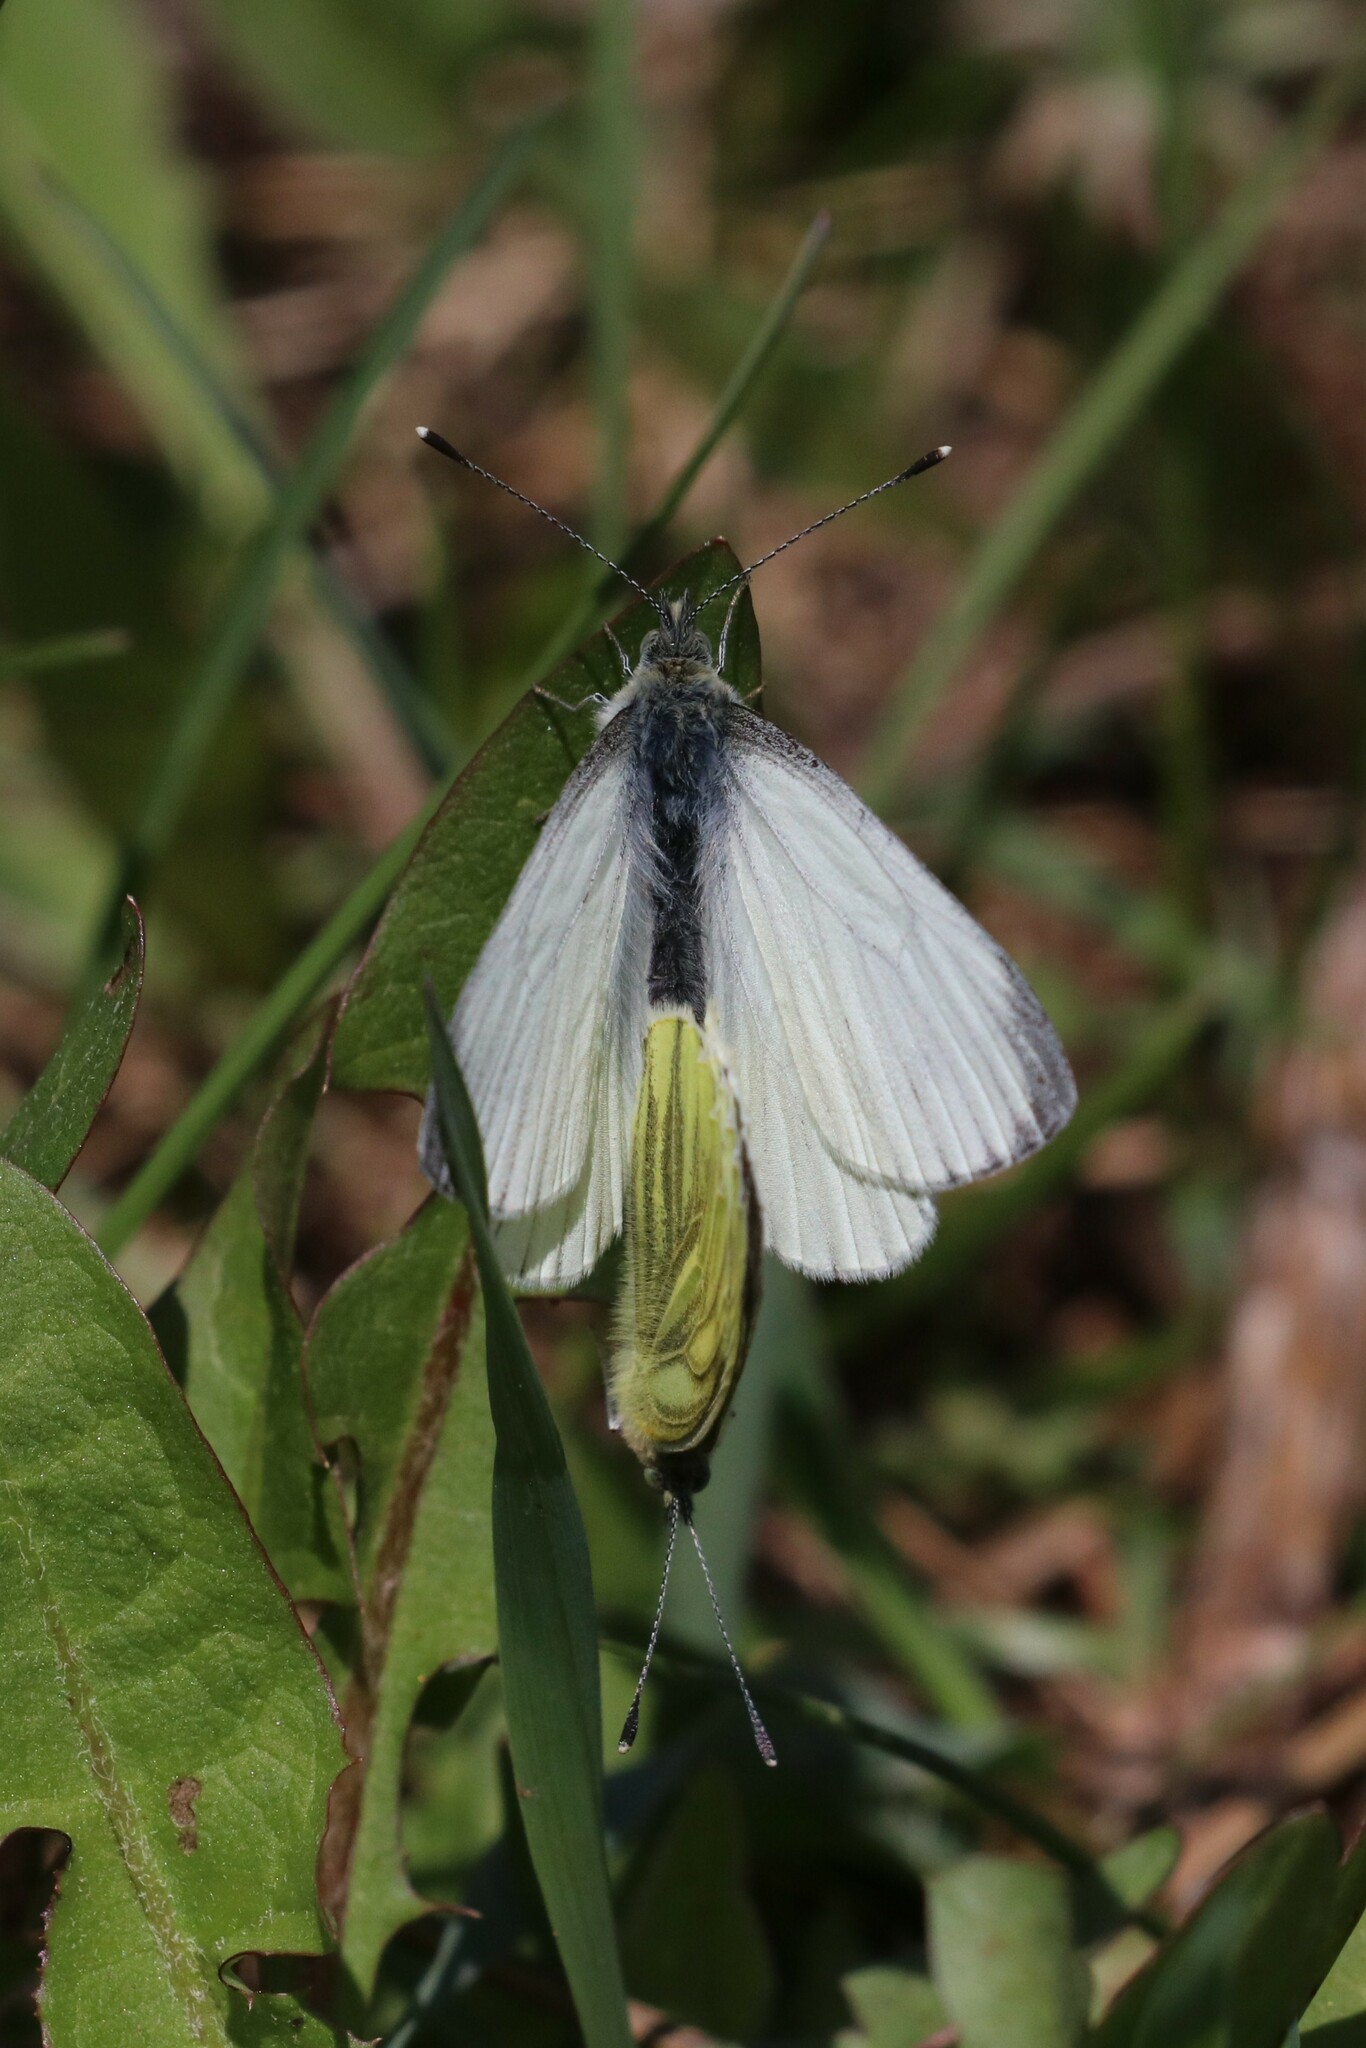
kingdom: Animalia
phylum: Arthropoda
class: Insecta
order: Lepidoptera
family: Pieridae
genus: Pieris
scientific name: Pieris napi
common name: Green-veined white
